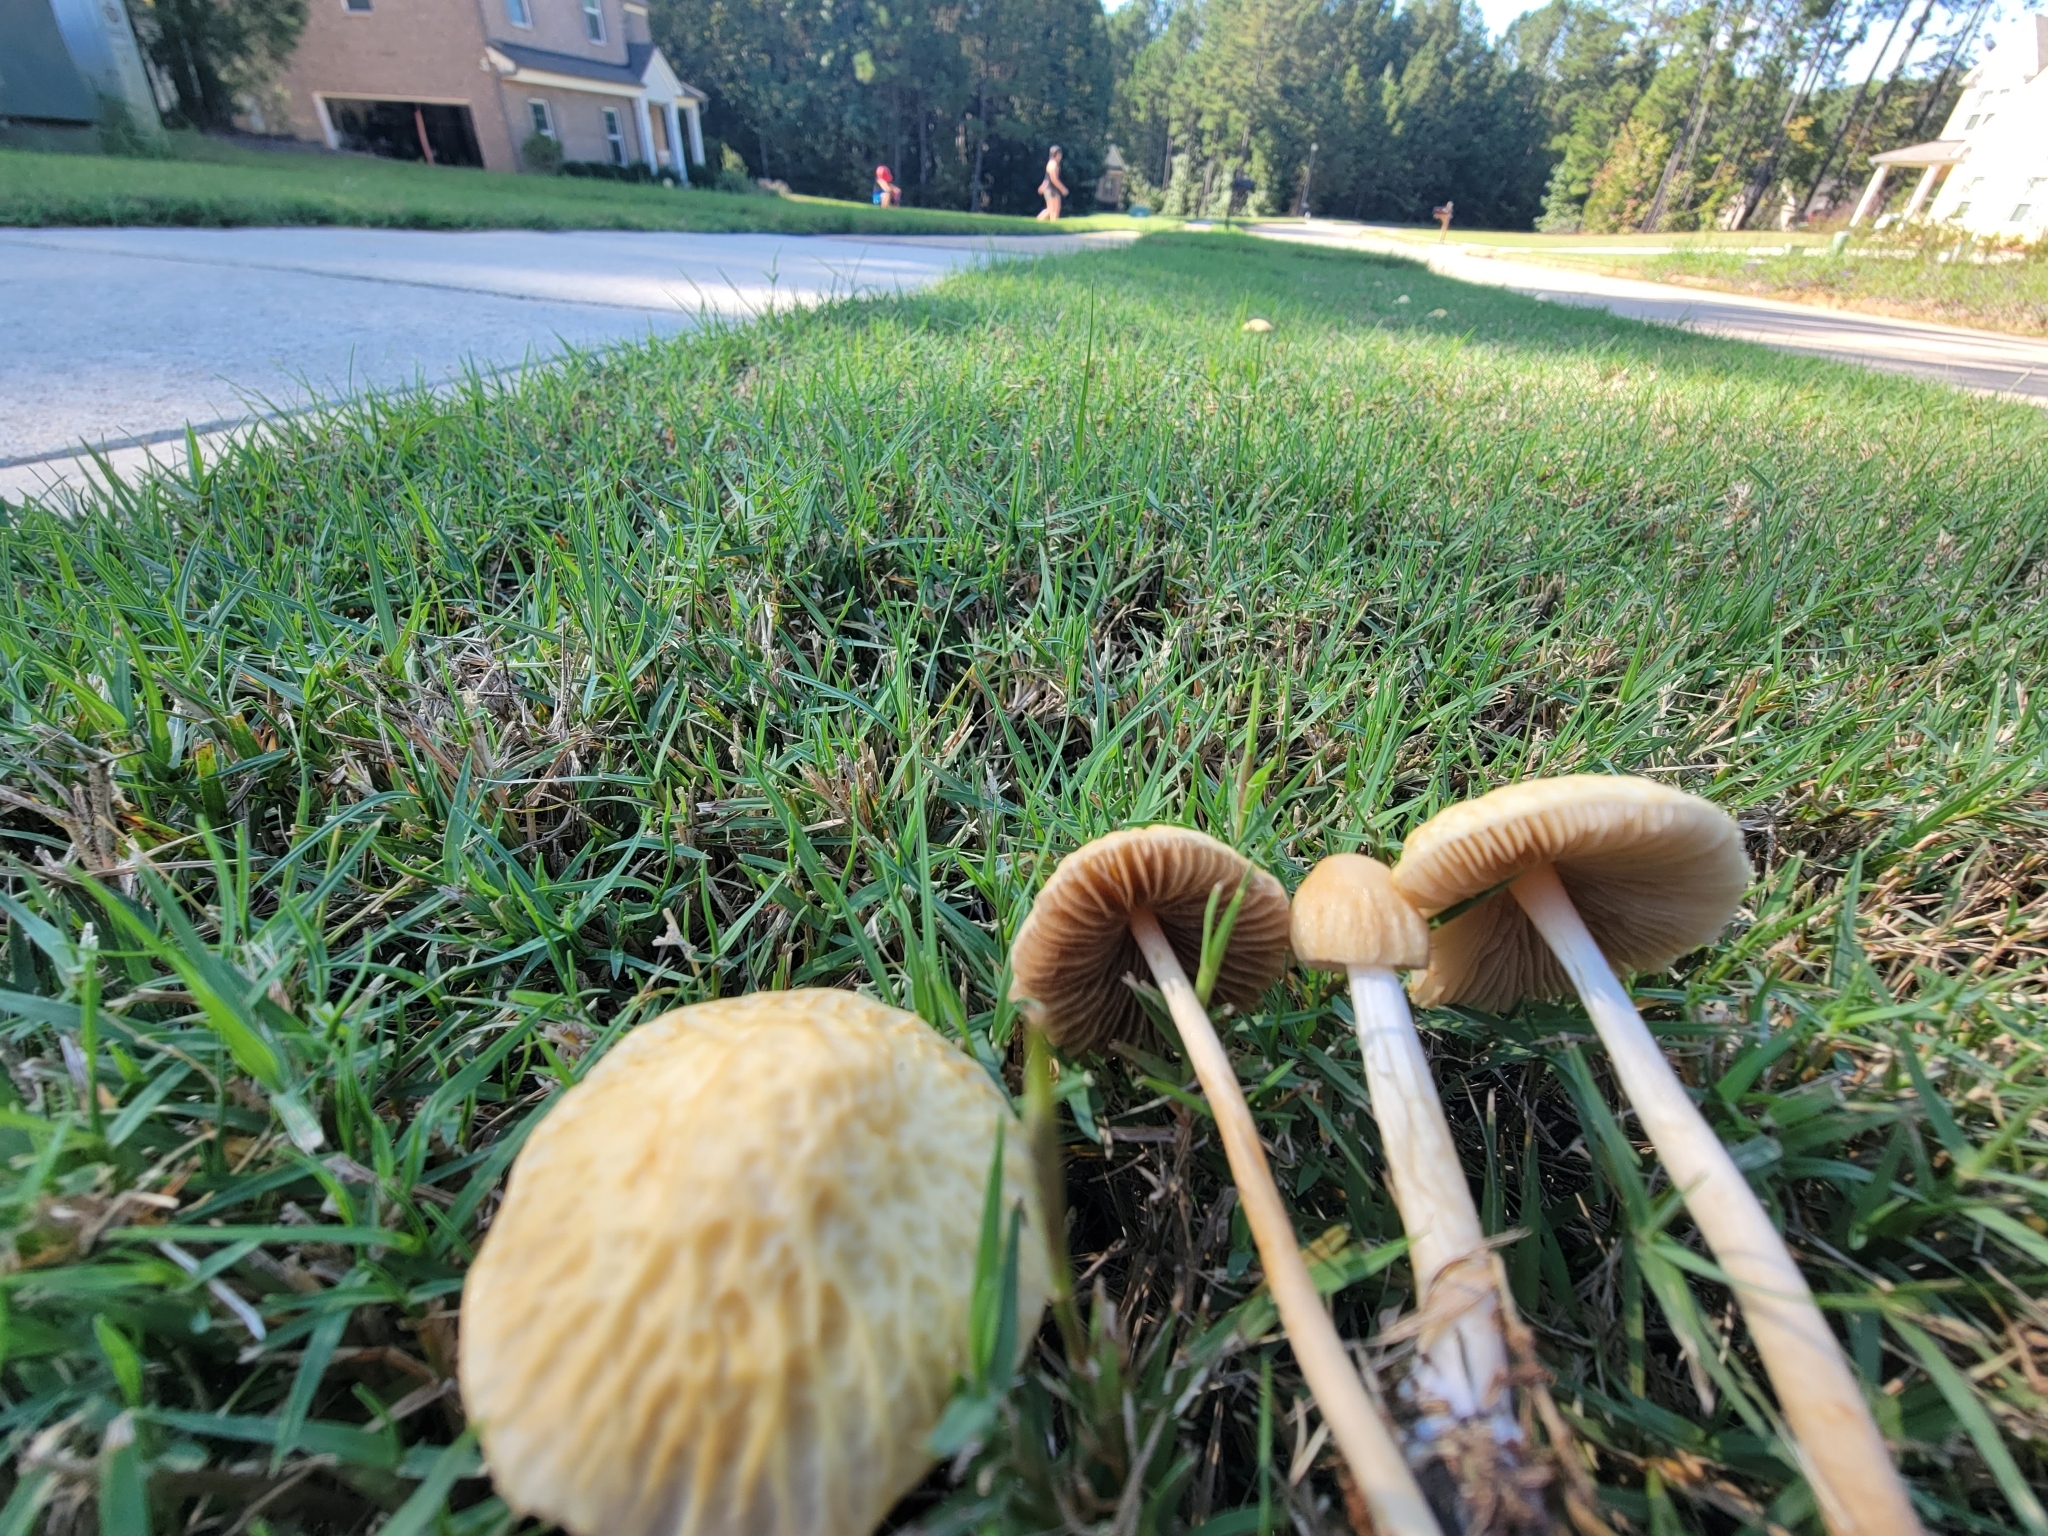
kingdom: Fungi
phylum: Basidiomycota
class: Agaricomycetes
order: Agaricales
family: Strophariaceae
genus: Agrocybe
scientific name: Agrocybe retigera
